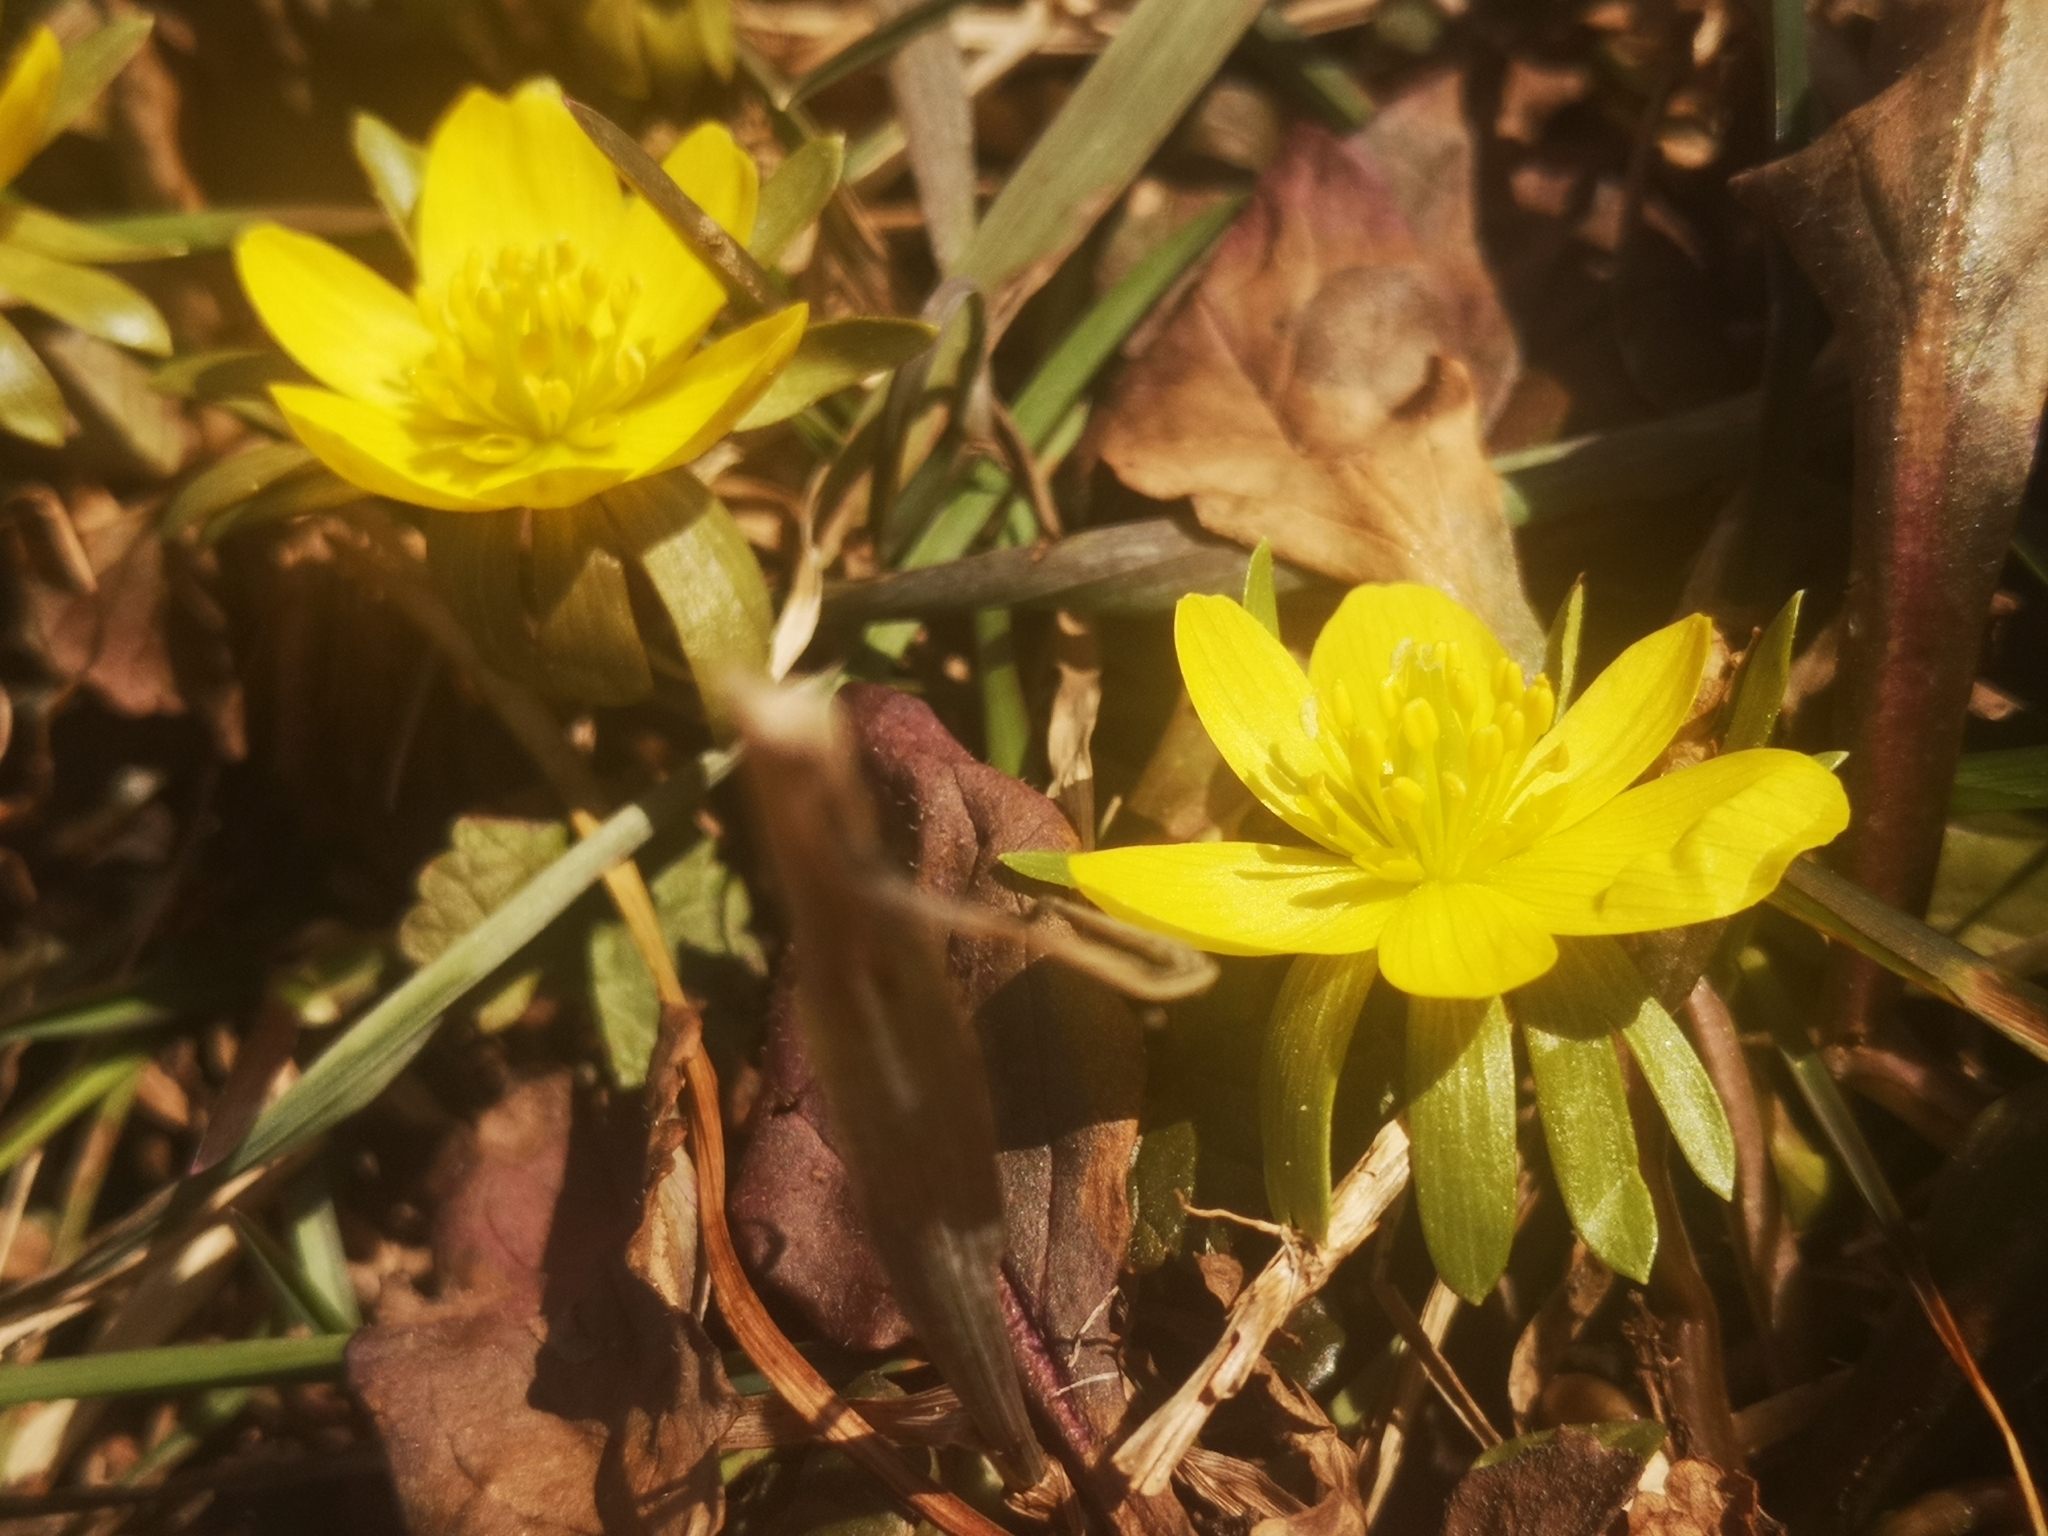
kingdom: Plantae
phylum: Tracheophyta
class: Magnoliopsida
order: Ranunculales
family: Ranunculaceae
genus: Eranthis
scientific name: Eranthis hyemalis
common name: Winter aconite
